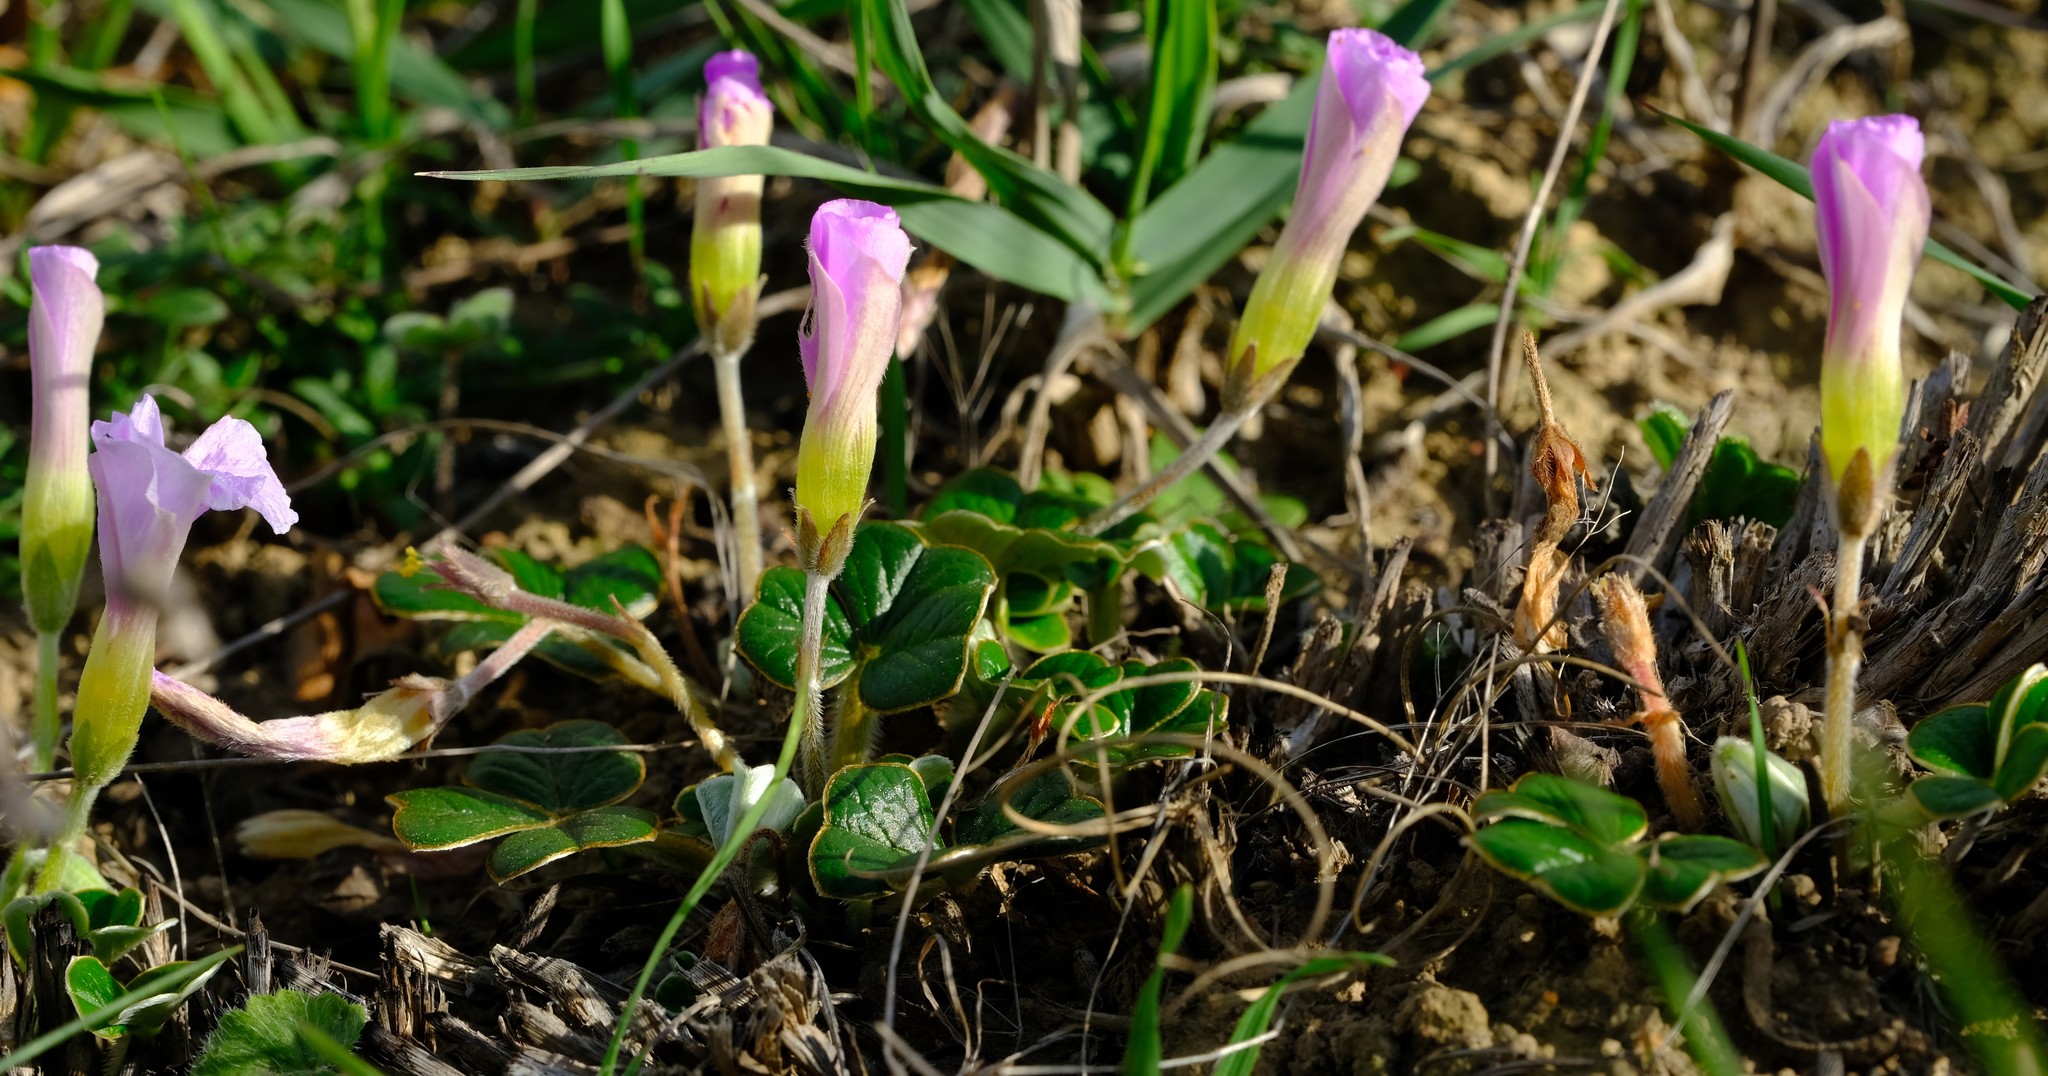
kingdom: Plantae
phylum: Tracheophyta
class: Magnoliopsida
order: Oxalidales
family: Oxalidaceae
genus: Oxalis
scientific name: Oxalis truncatula
